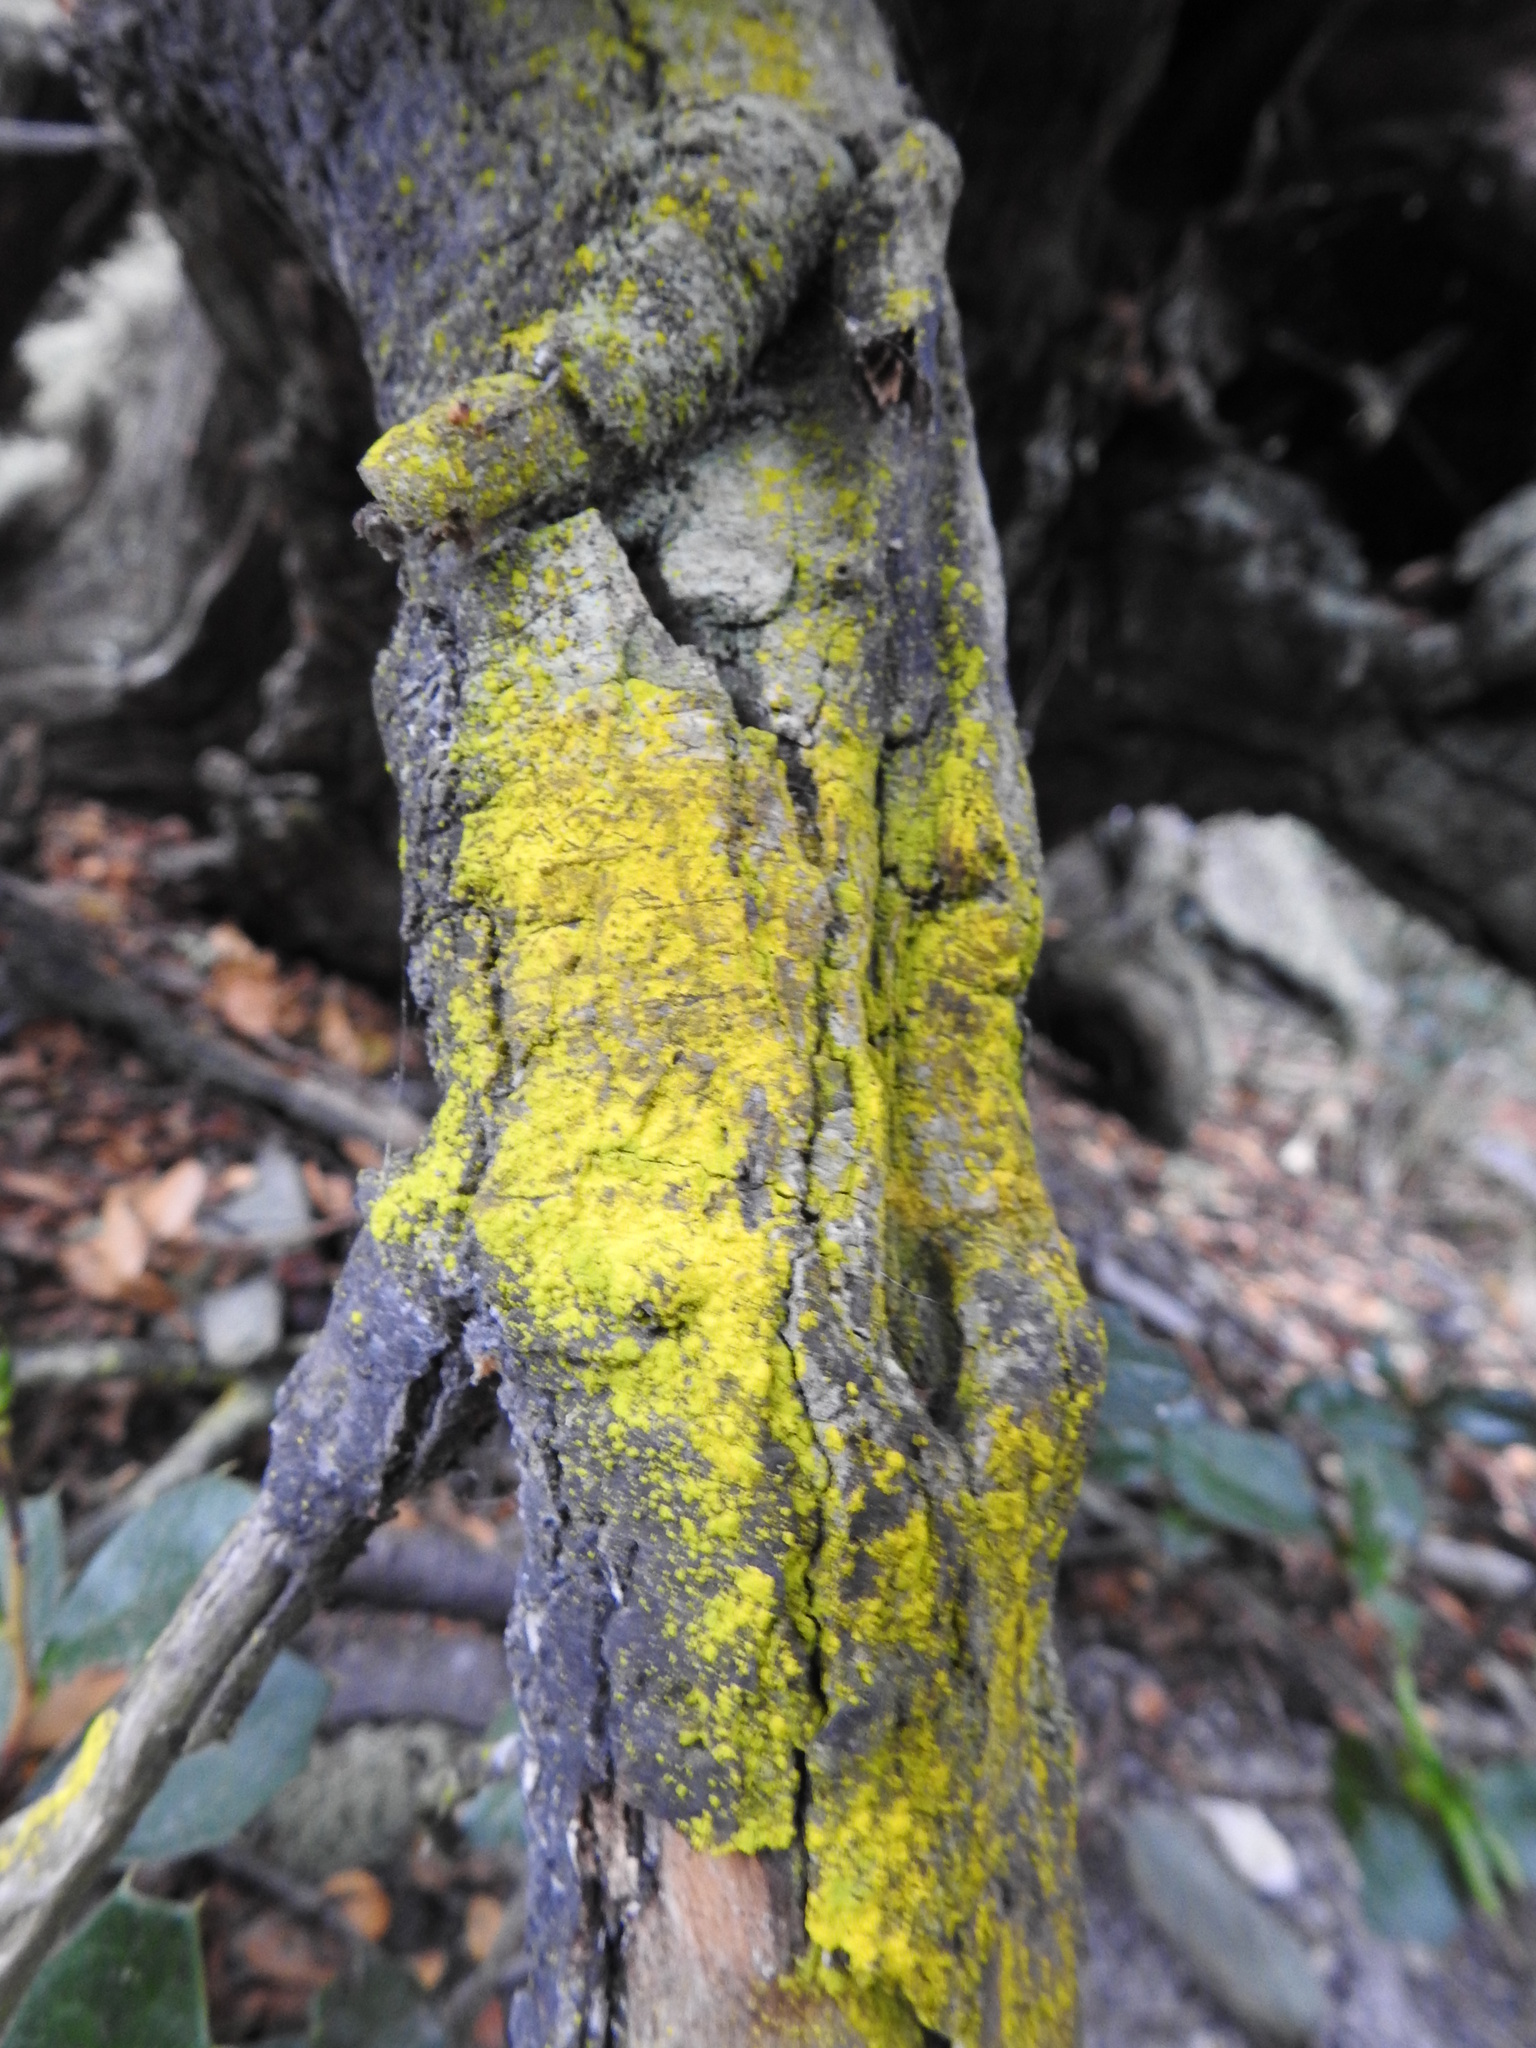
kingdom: Fungi
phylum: Ascomycota
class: Arthoniomycetes
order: Arthoniales
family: Chrysotrichaceae
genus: Chrysothrix
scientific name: Chrysothrix candelaris
